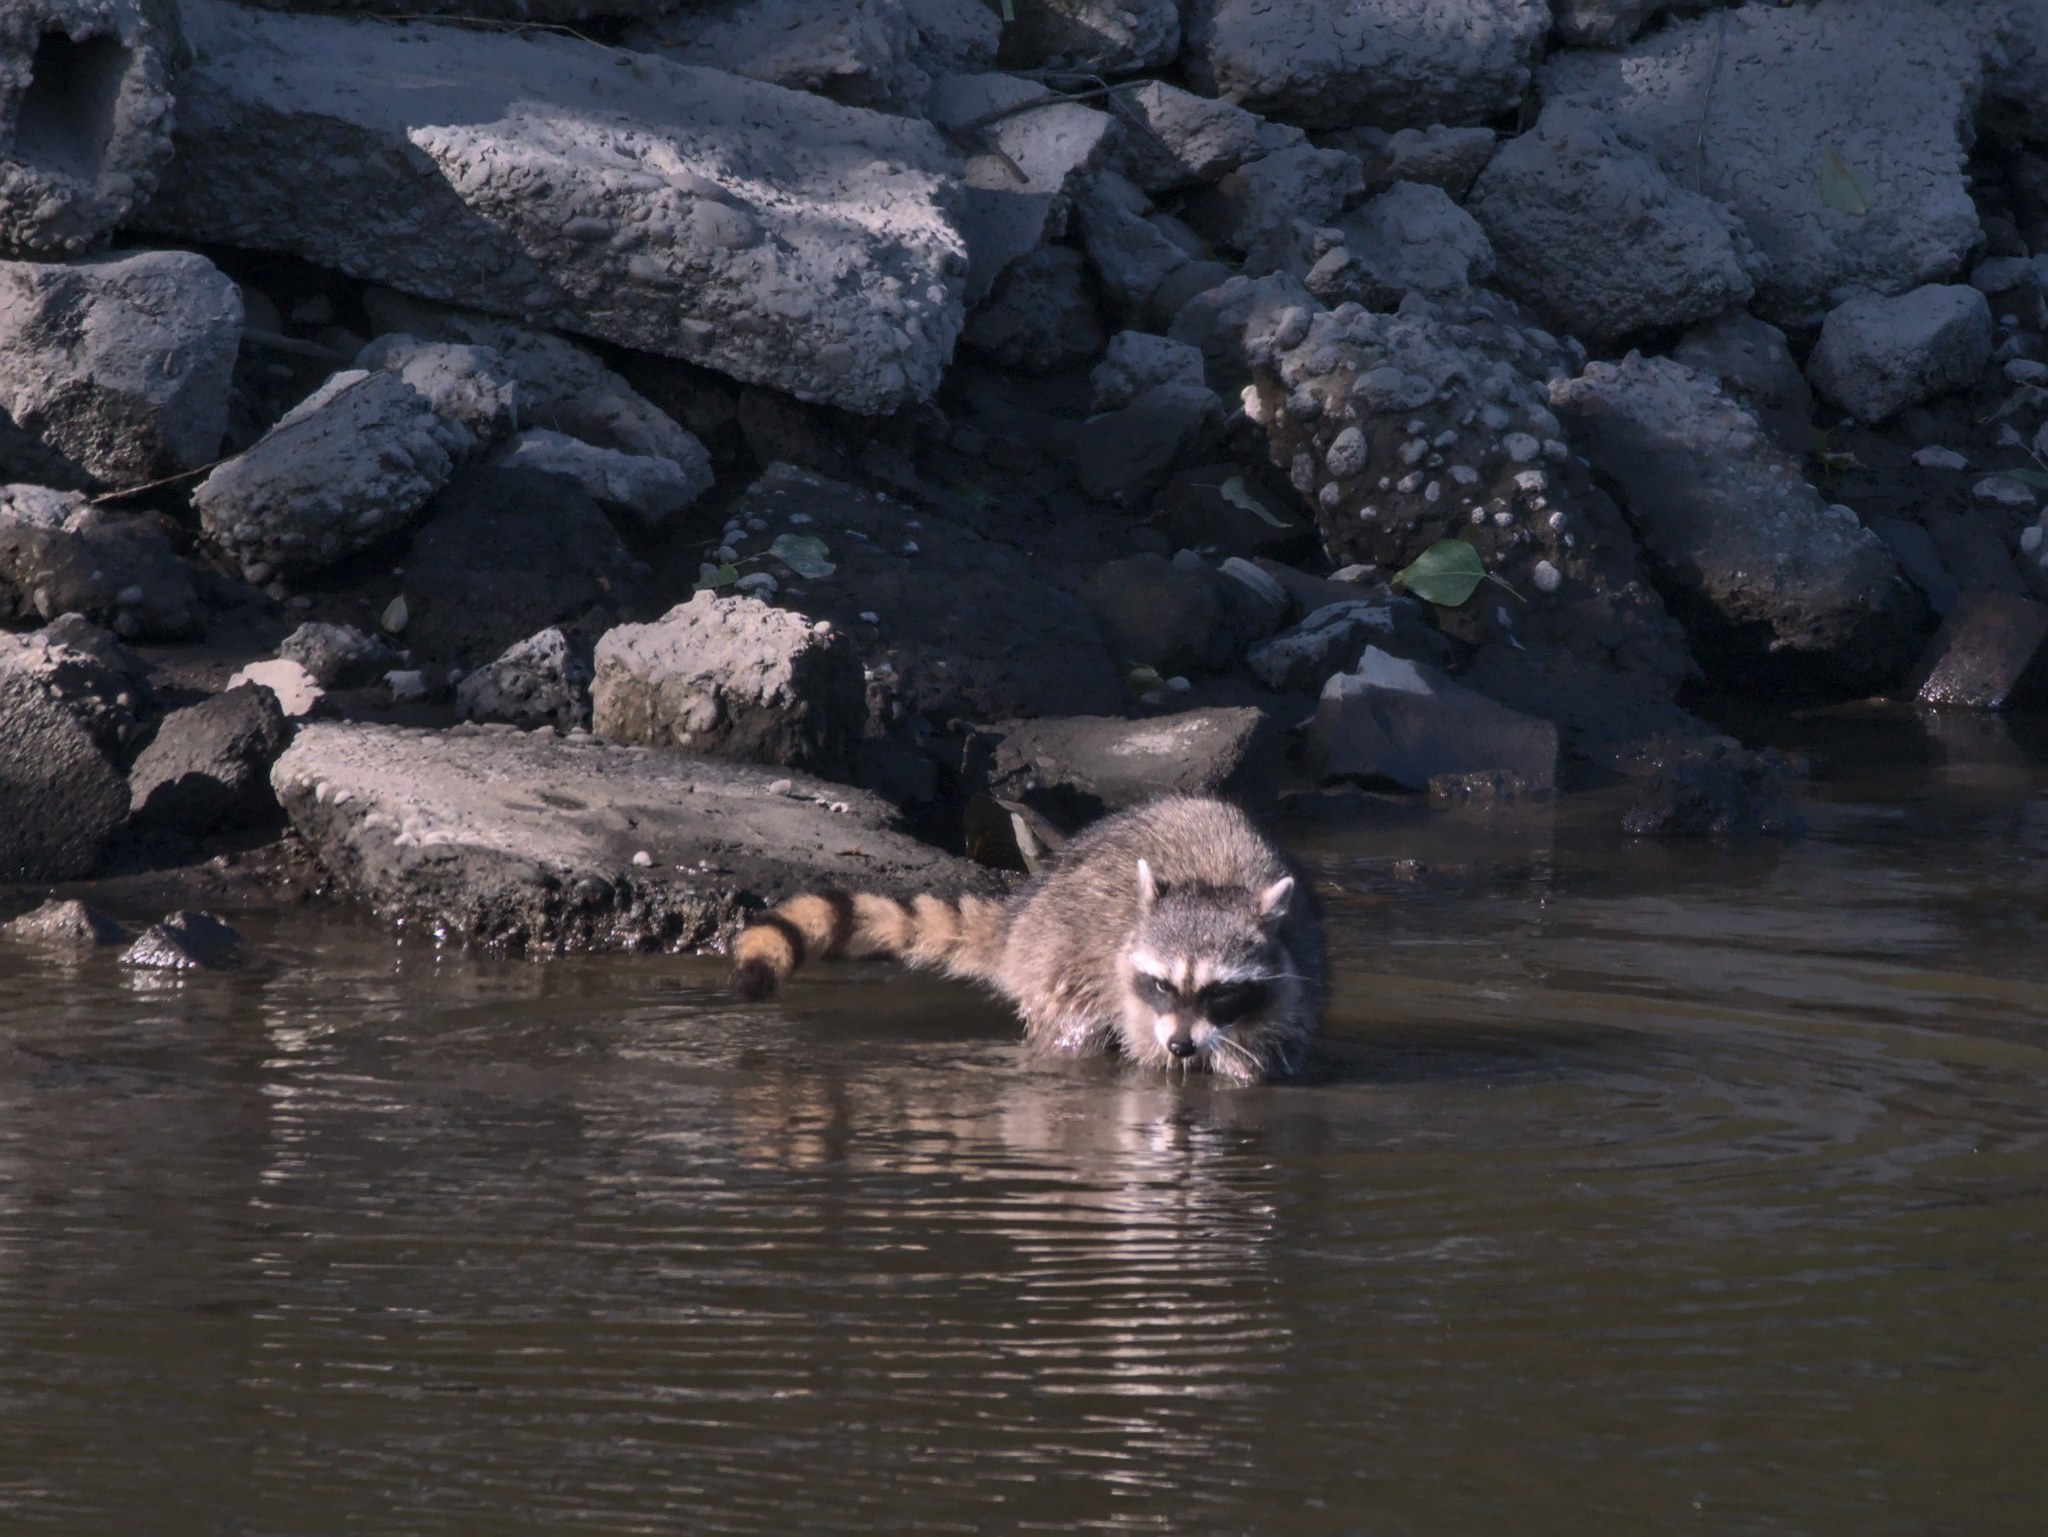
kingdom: Animalia
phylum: Chordata
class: Mammalia
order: Carnivora
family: Procyonidae
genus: Procyon
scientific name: Procyon lotor
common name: Raccoon
